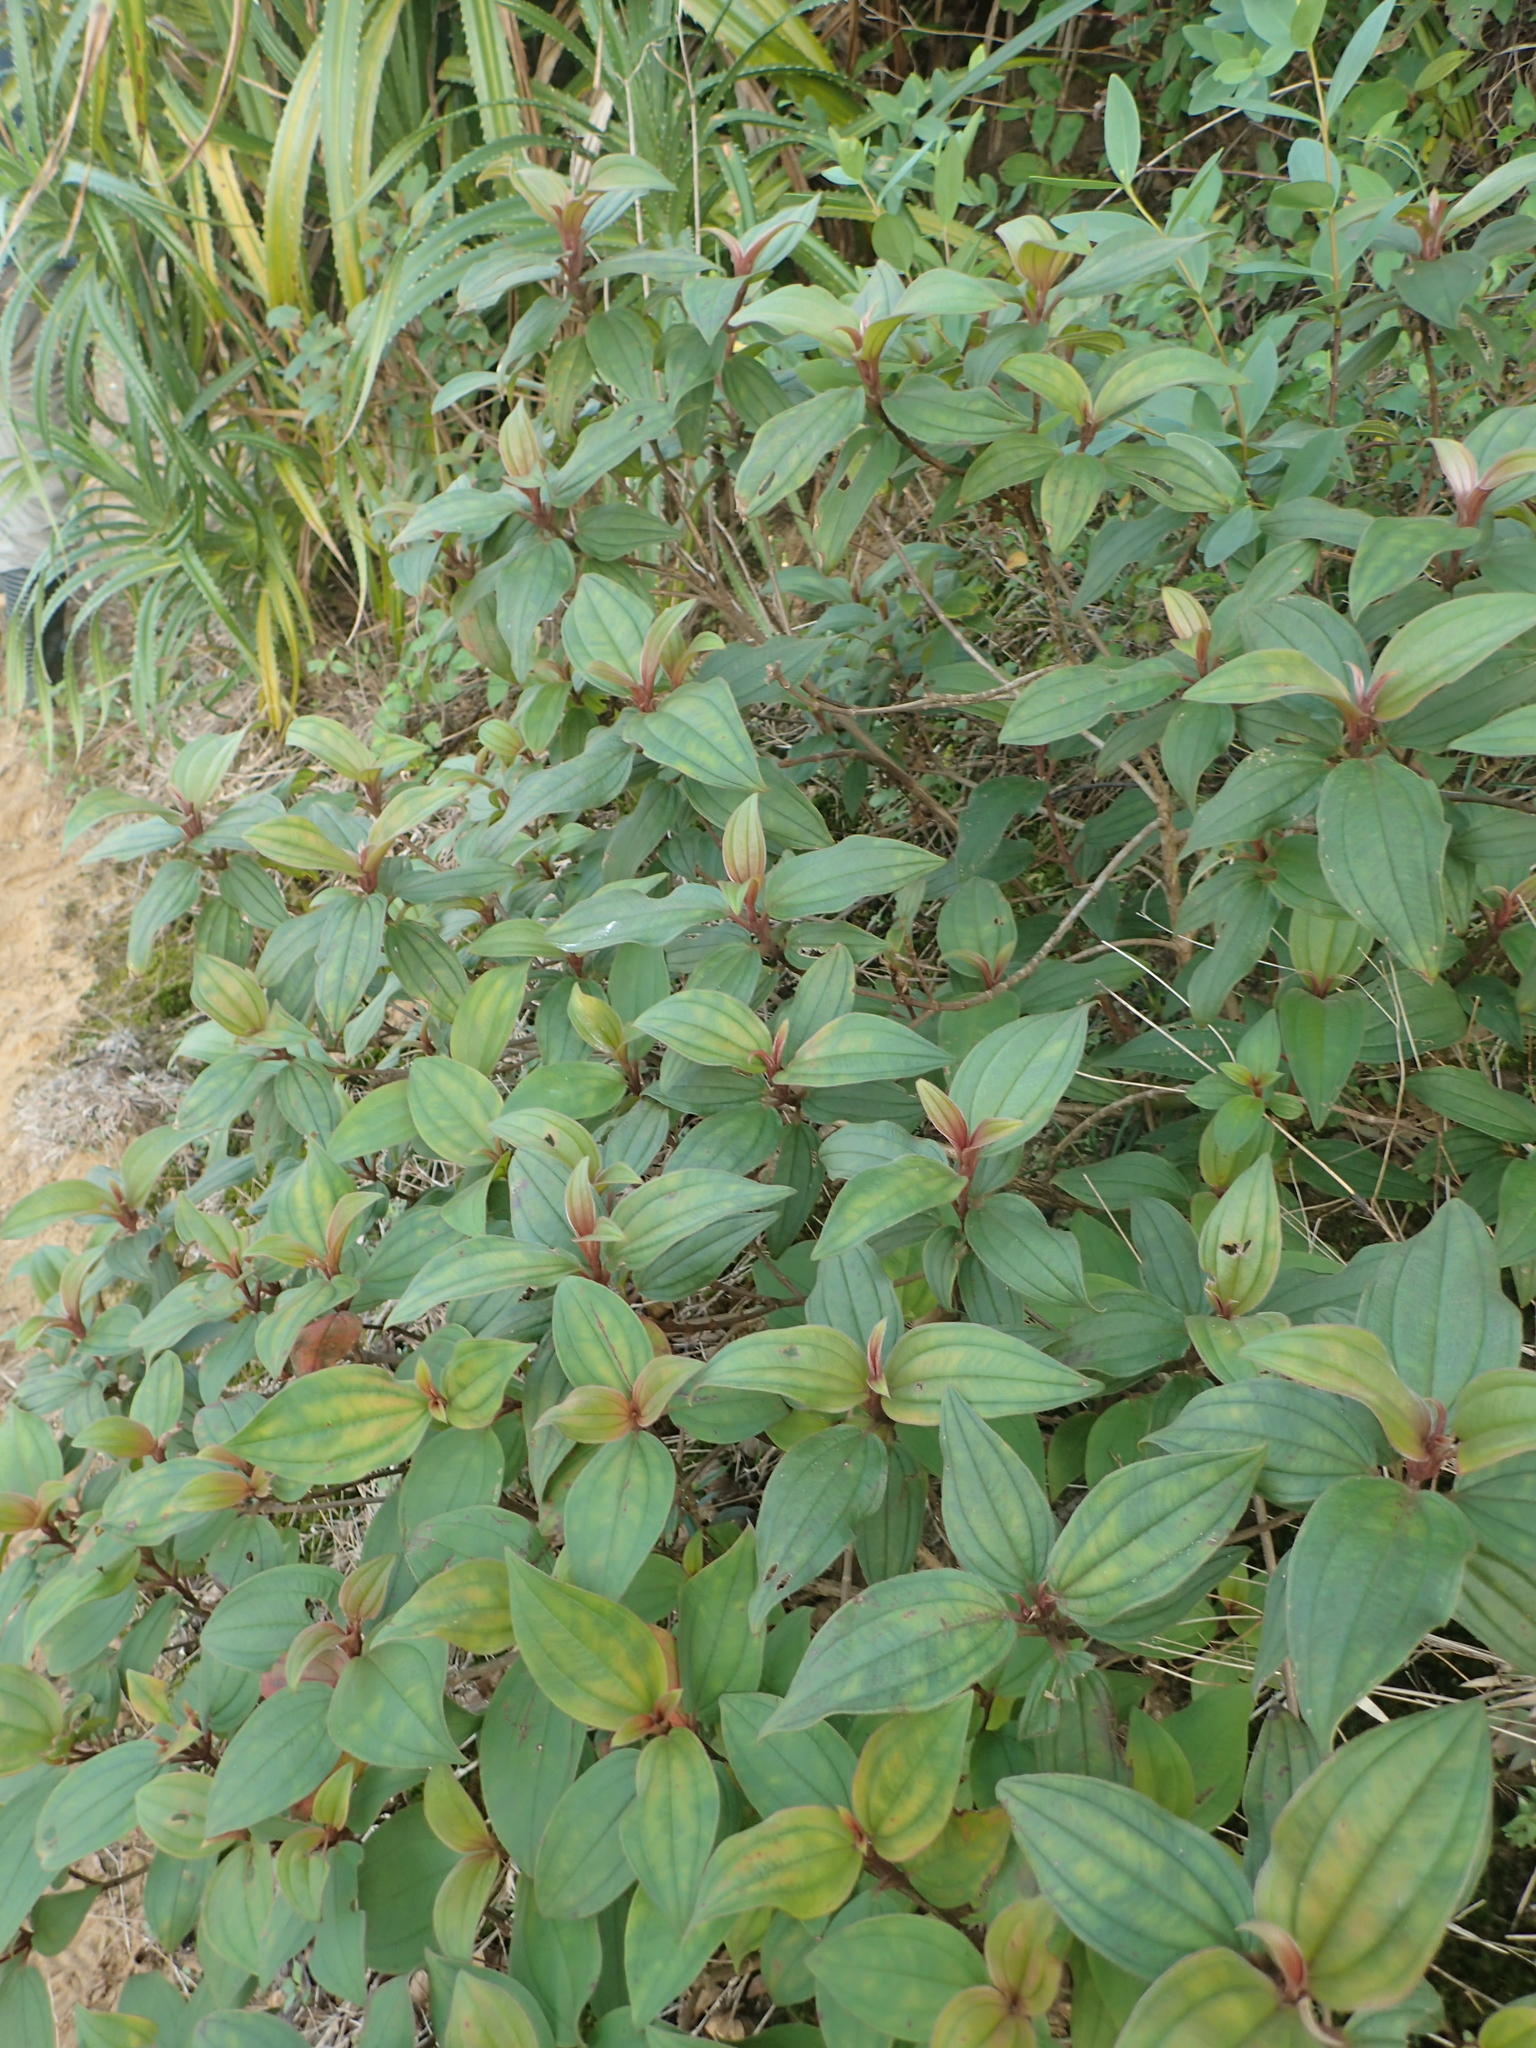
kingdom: Plantae
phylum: Tracheophyta
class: Magnoliopsida
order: Myrtales
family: Melastomataceae
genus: Melastoma
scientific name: Melastoma malabathricum
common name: Indian-rhododendron
